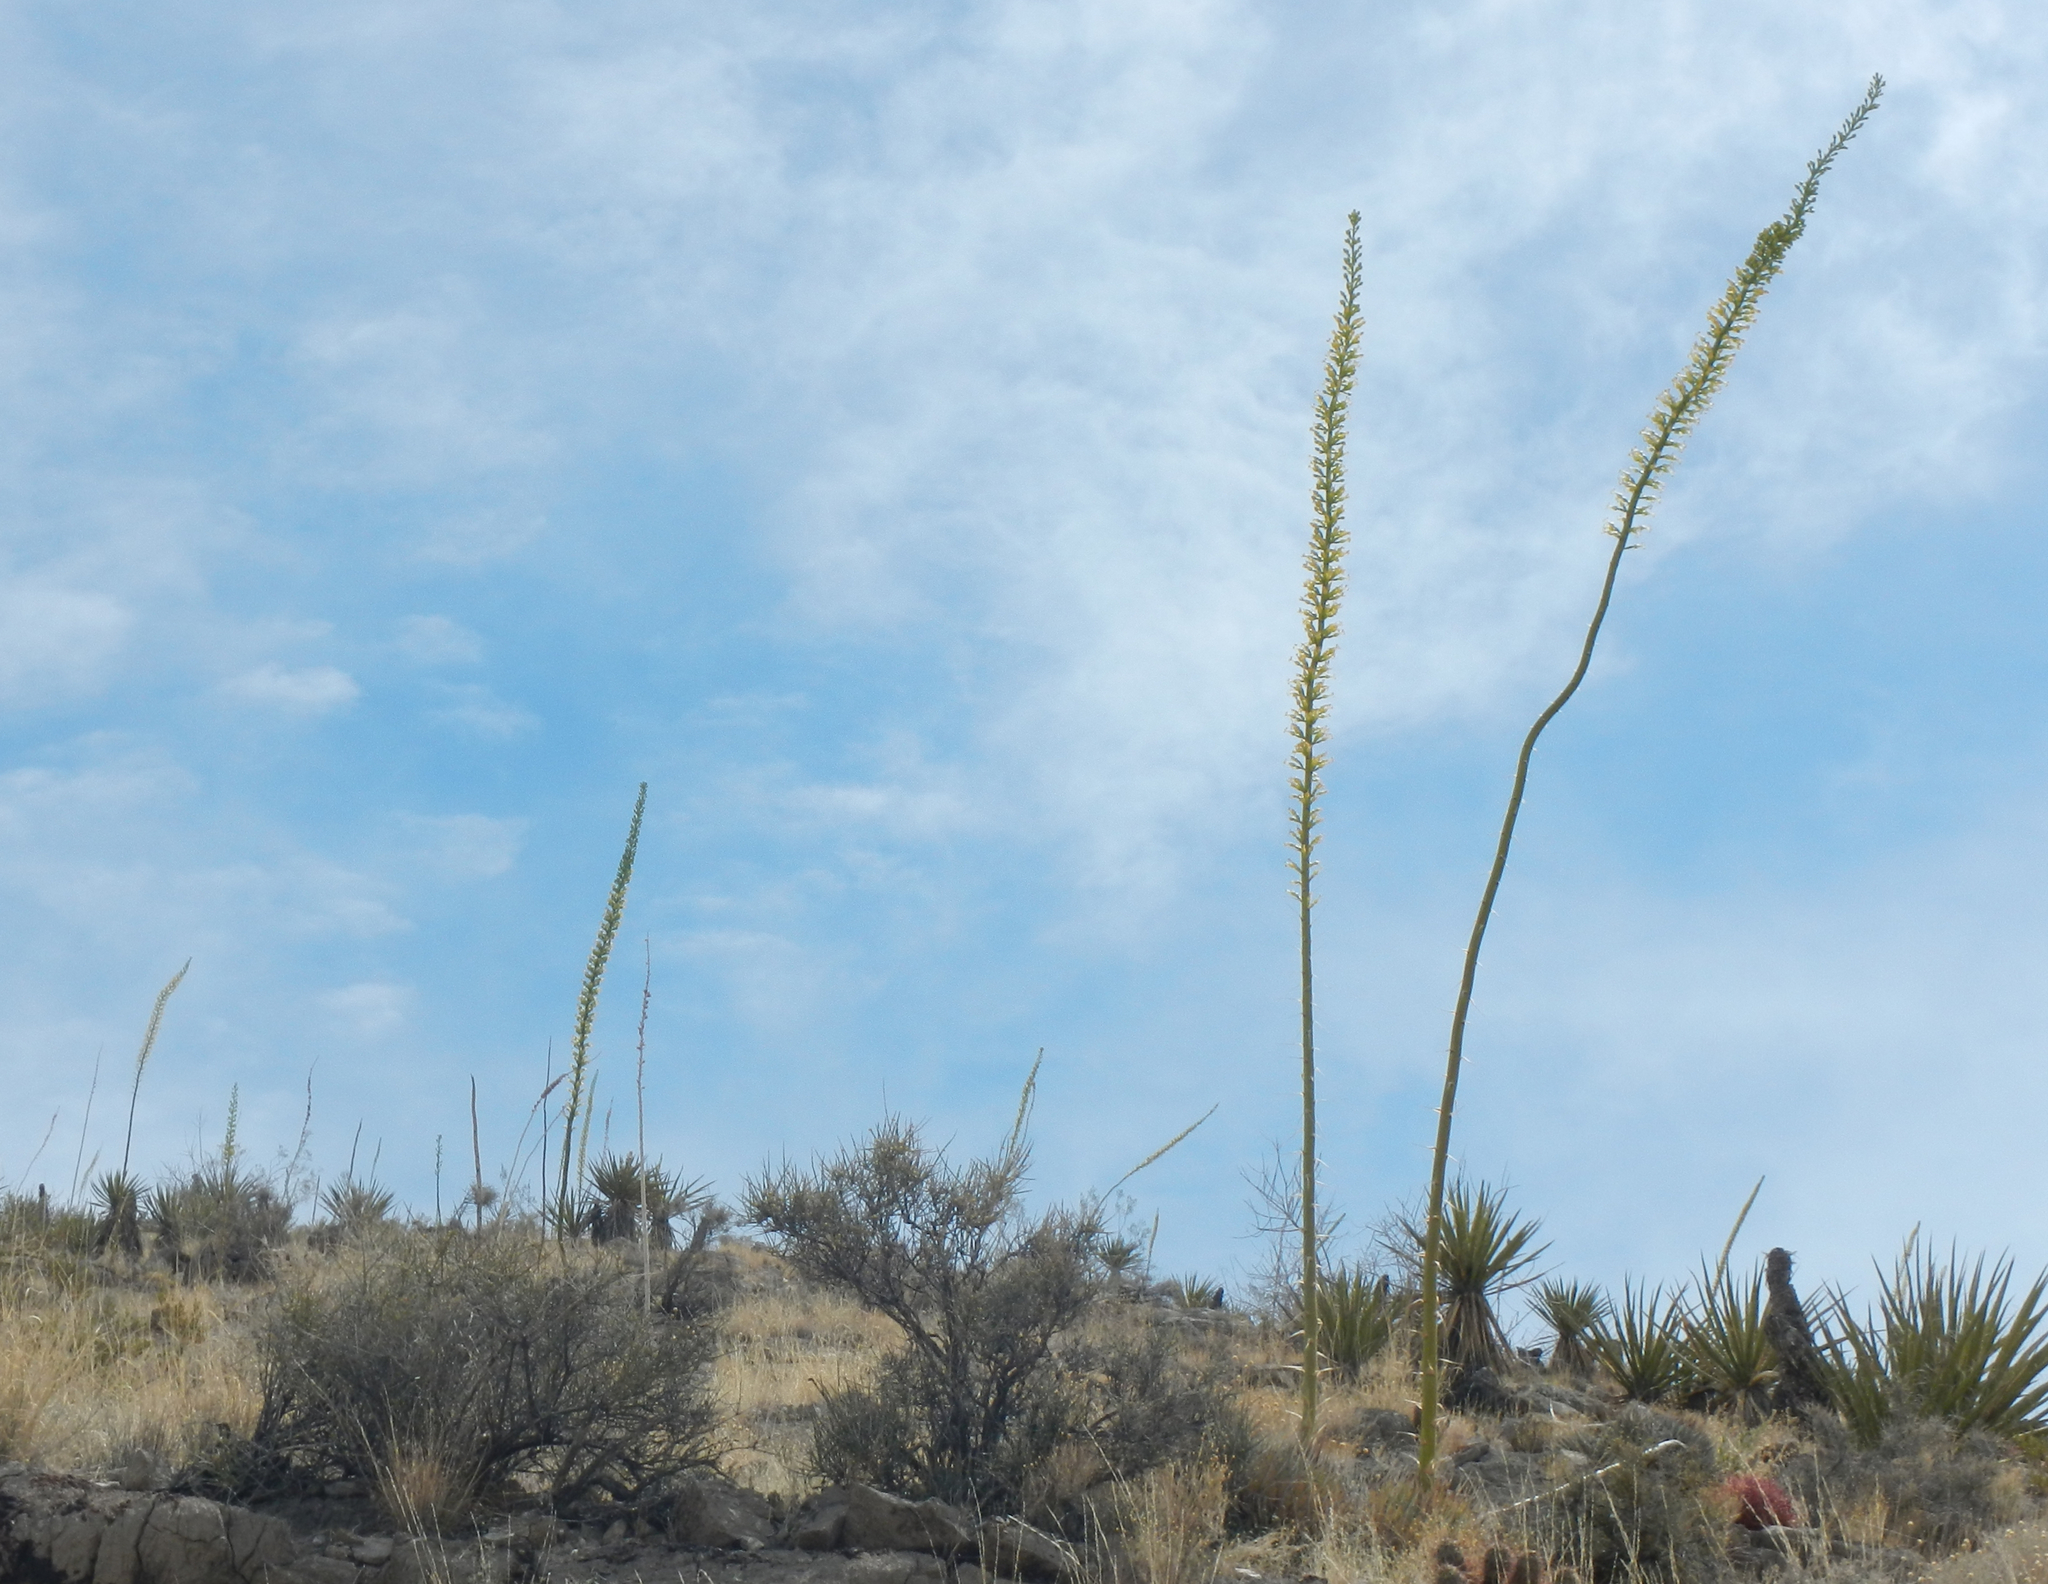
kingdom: Plantae
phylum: Tracheophyta
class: Liliopsida
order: Asparagales
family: Asparagaceae
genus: Agave
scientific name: Agave utahensis
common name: Utah agave
